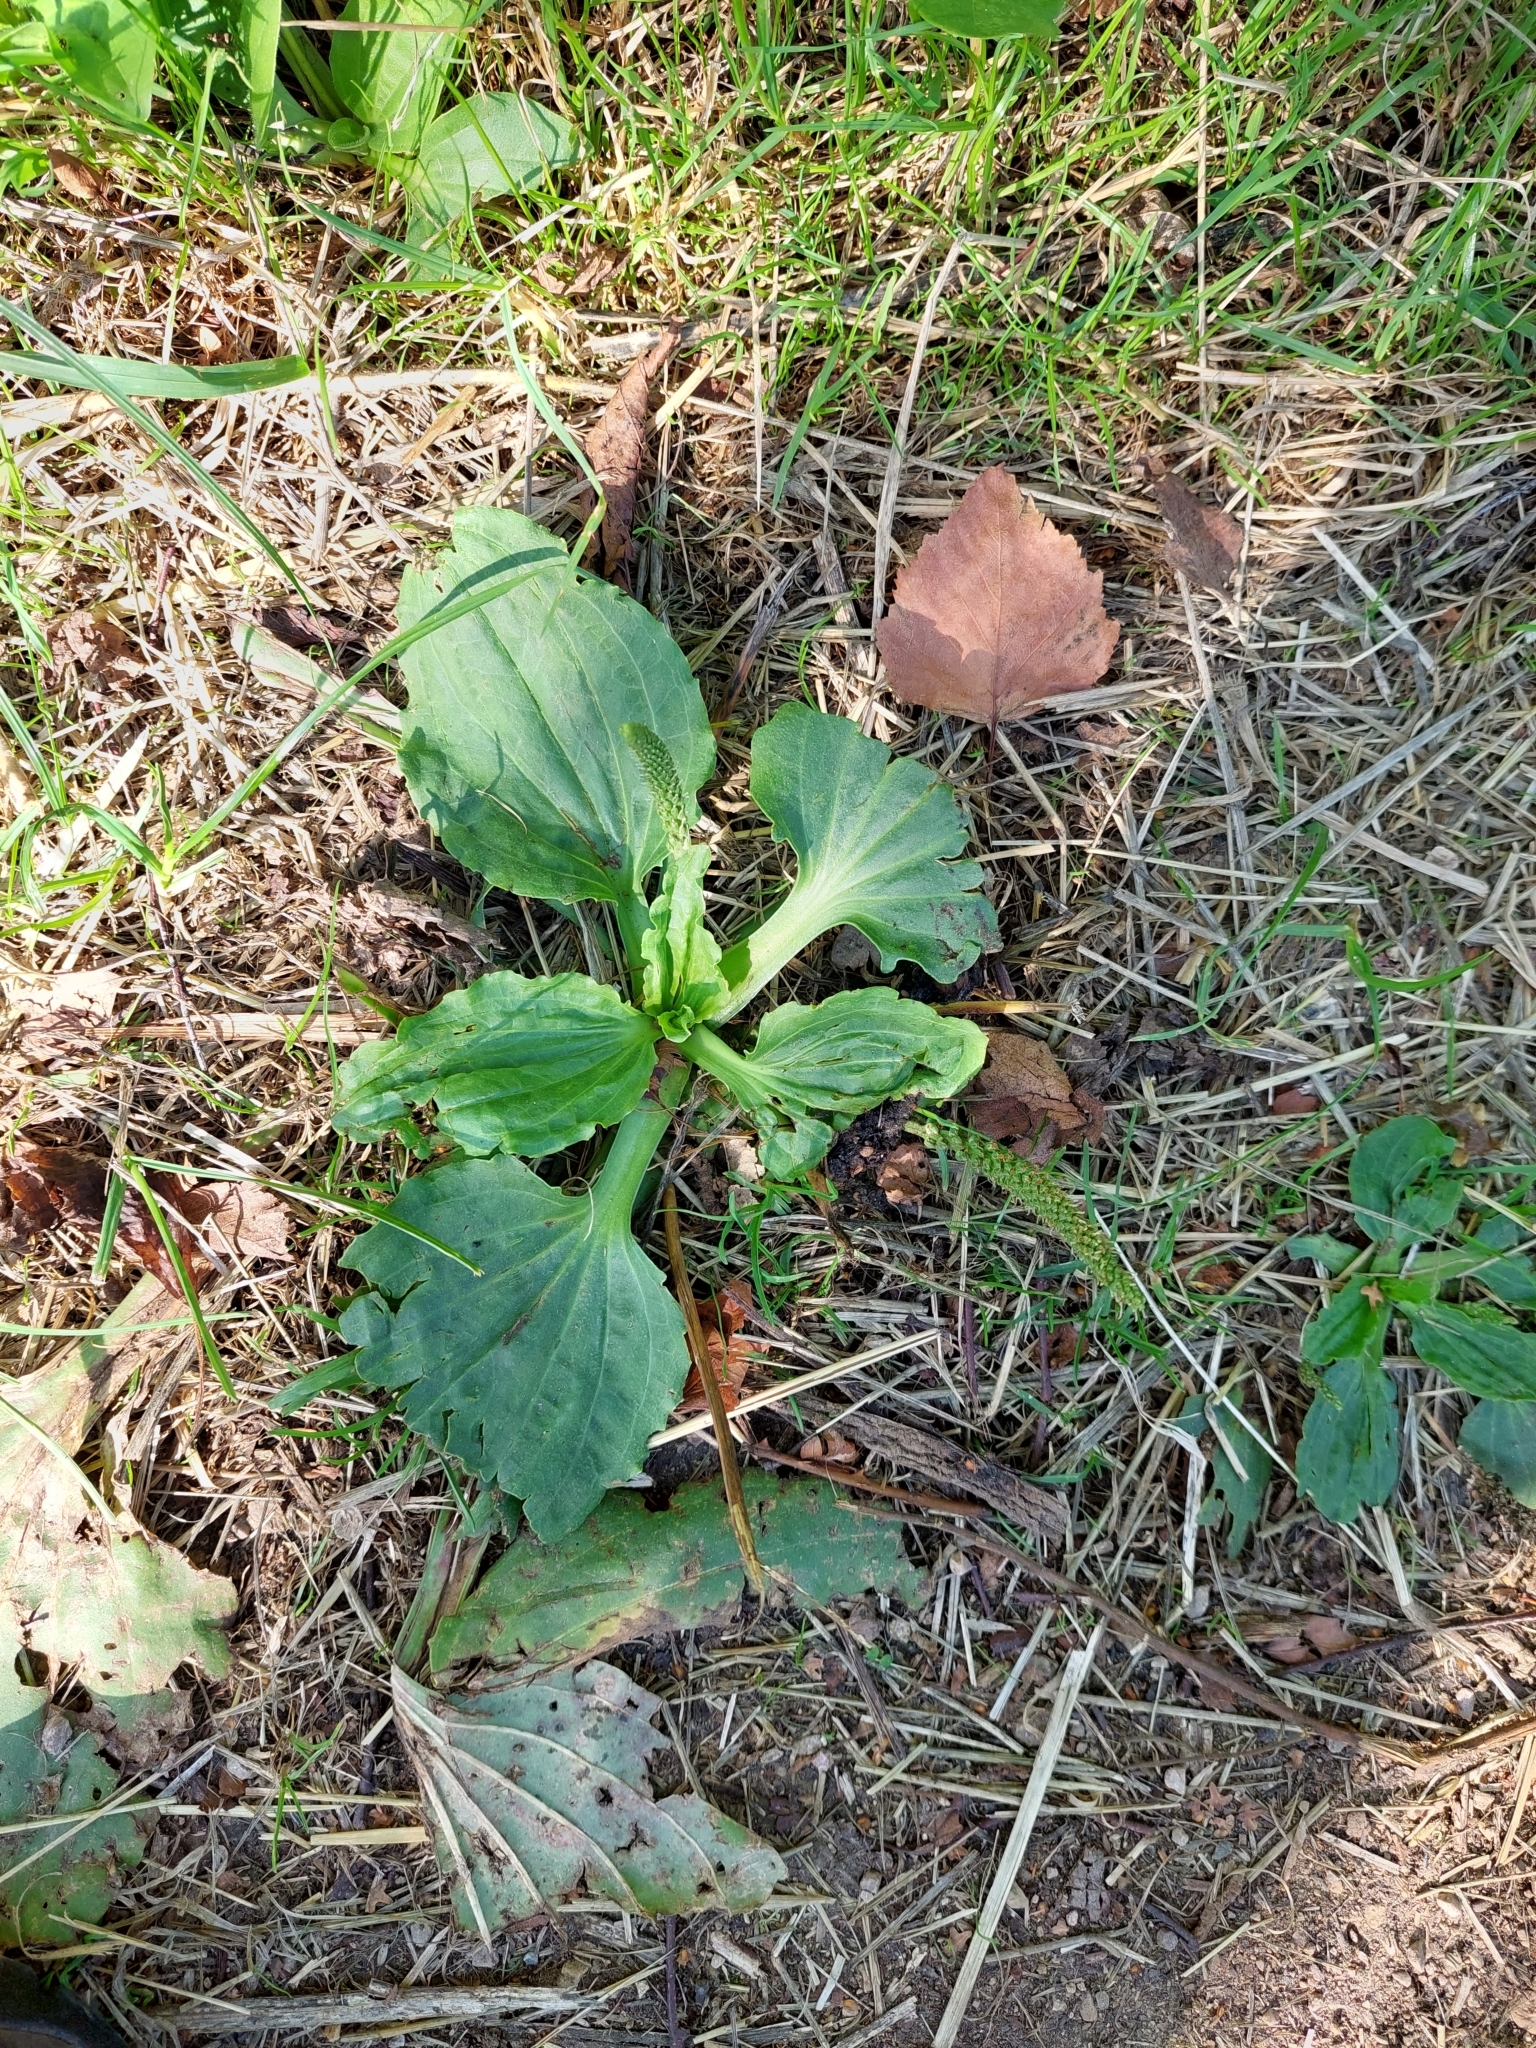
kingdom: Plantae
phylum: Tracheophyta
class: Magnoliopsida
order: Lamiales
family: Plantaginaceae
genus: Plantago
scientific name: Plantago major
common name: Common plantain
